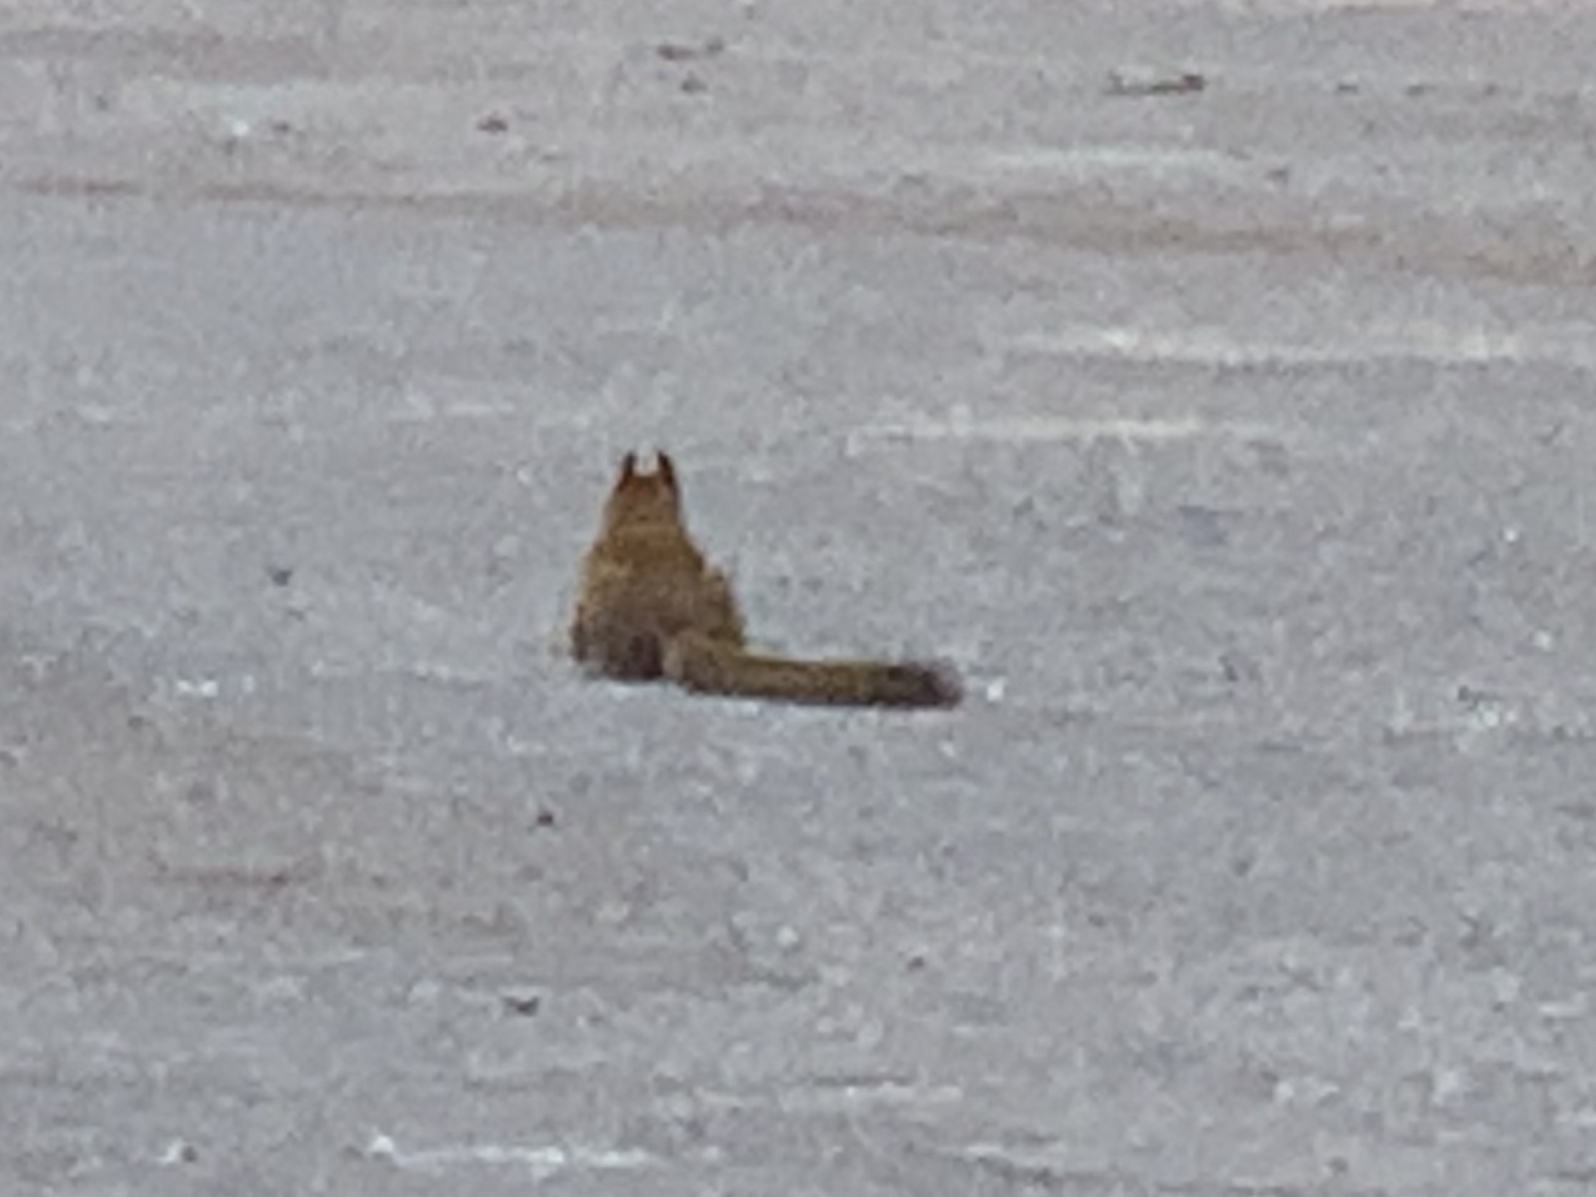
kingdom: Animalia
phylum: Chordata
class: Mammalia
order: Rodentia
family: Sciuridae
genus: Tamiasciurus
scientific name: Tamiasciurus hudsonicus
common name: Red squirrel
